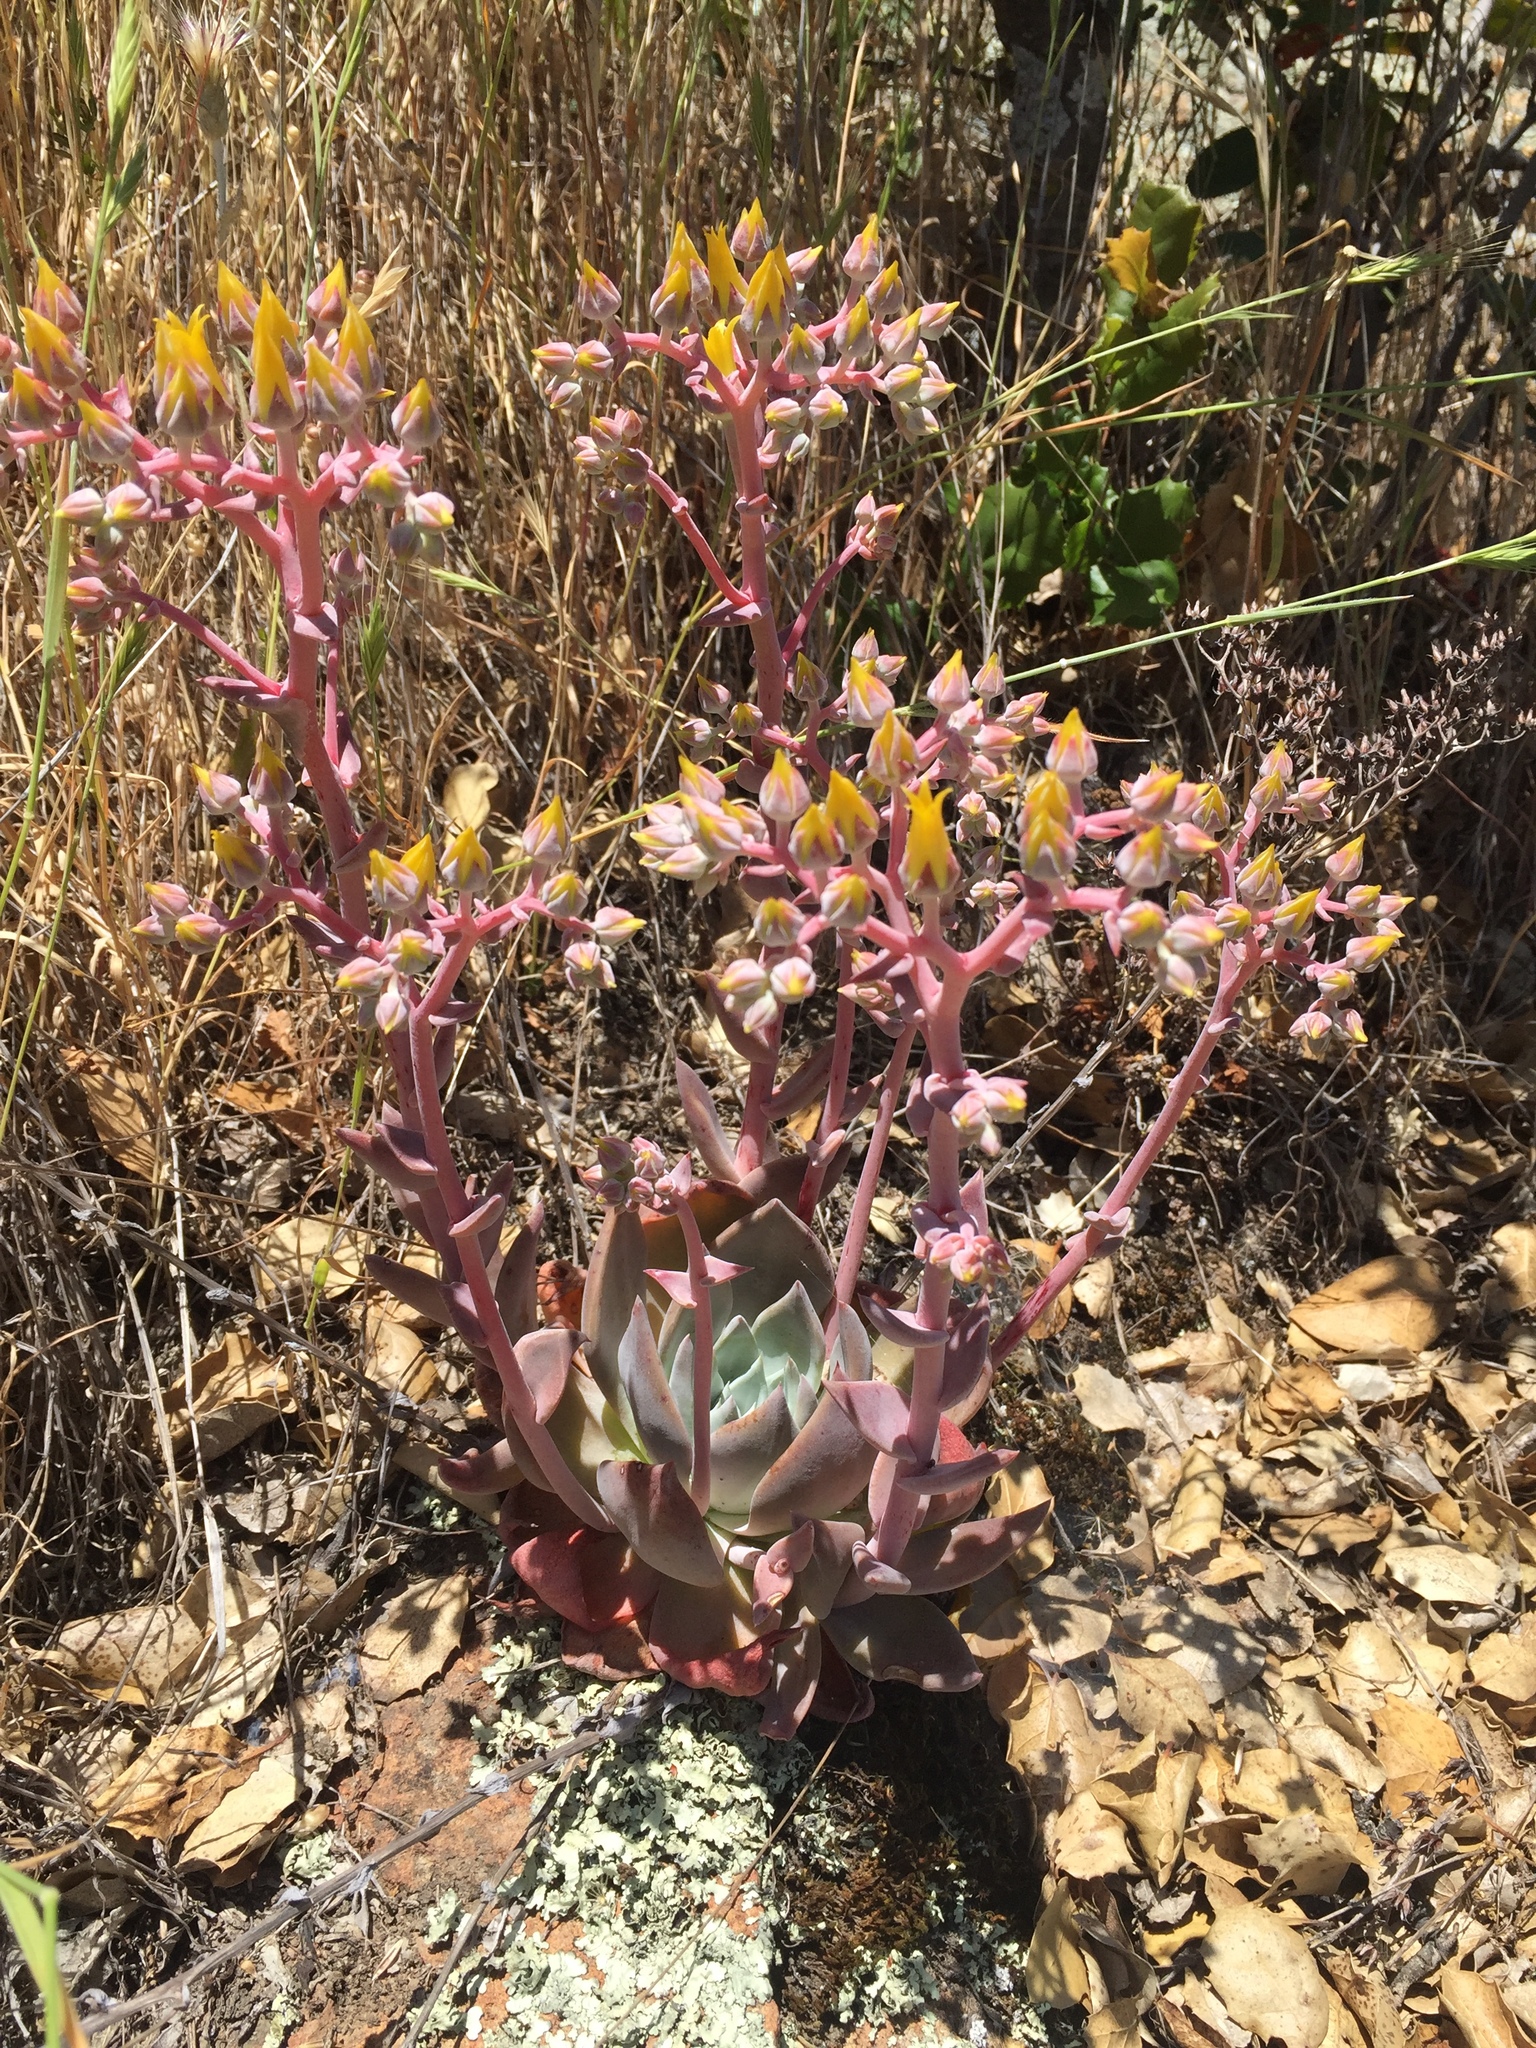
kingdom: Plantae
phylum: Tracheophyta
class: Magnoliopsida
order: Saxifragales
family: Crassulaceae
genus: Dudleya
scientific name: Dudleya cymosa
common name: Canyon dudleya
